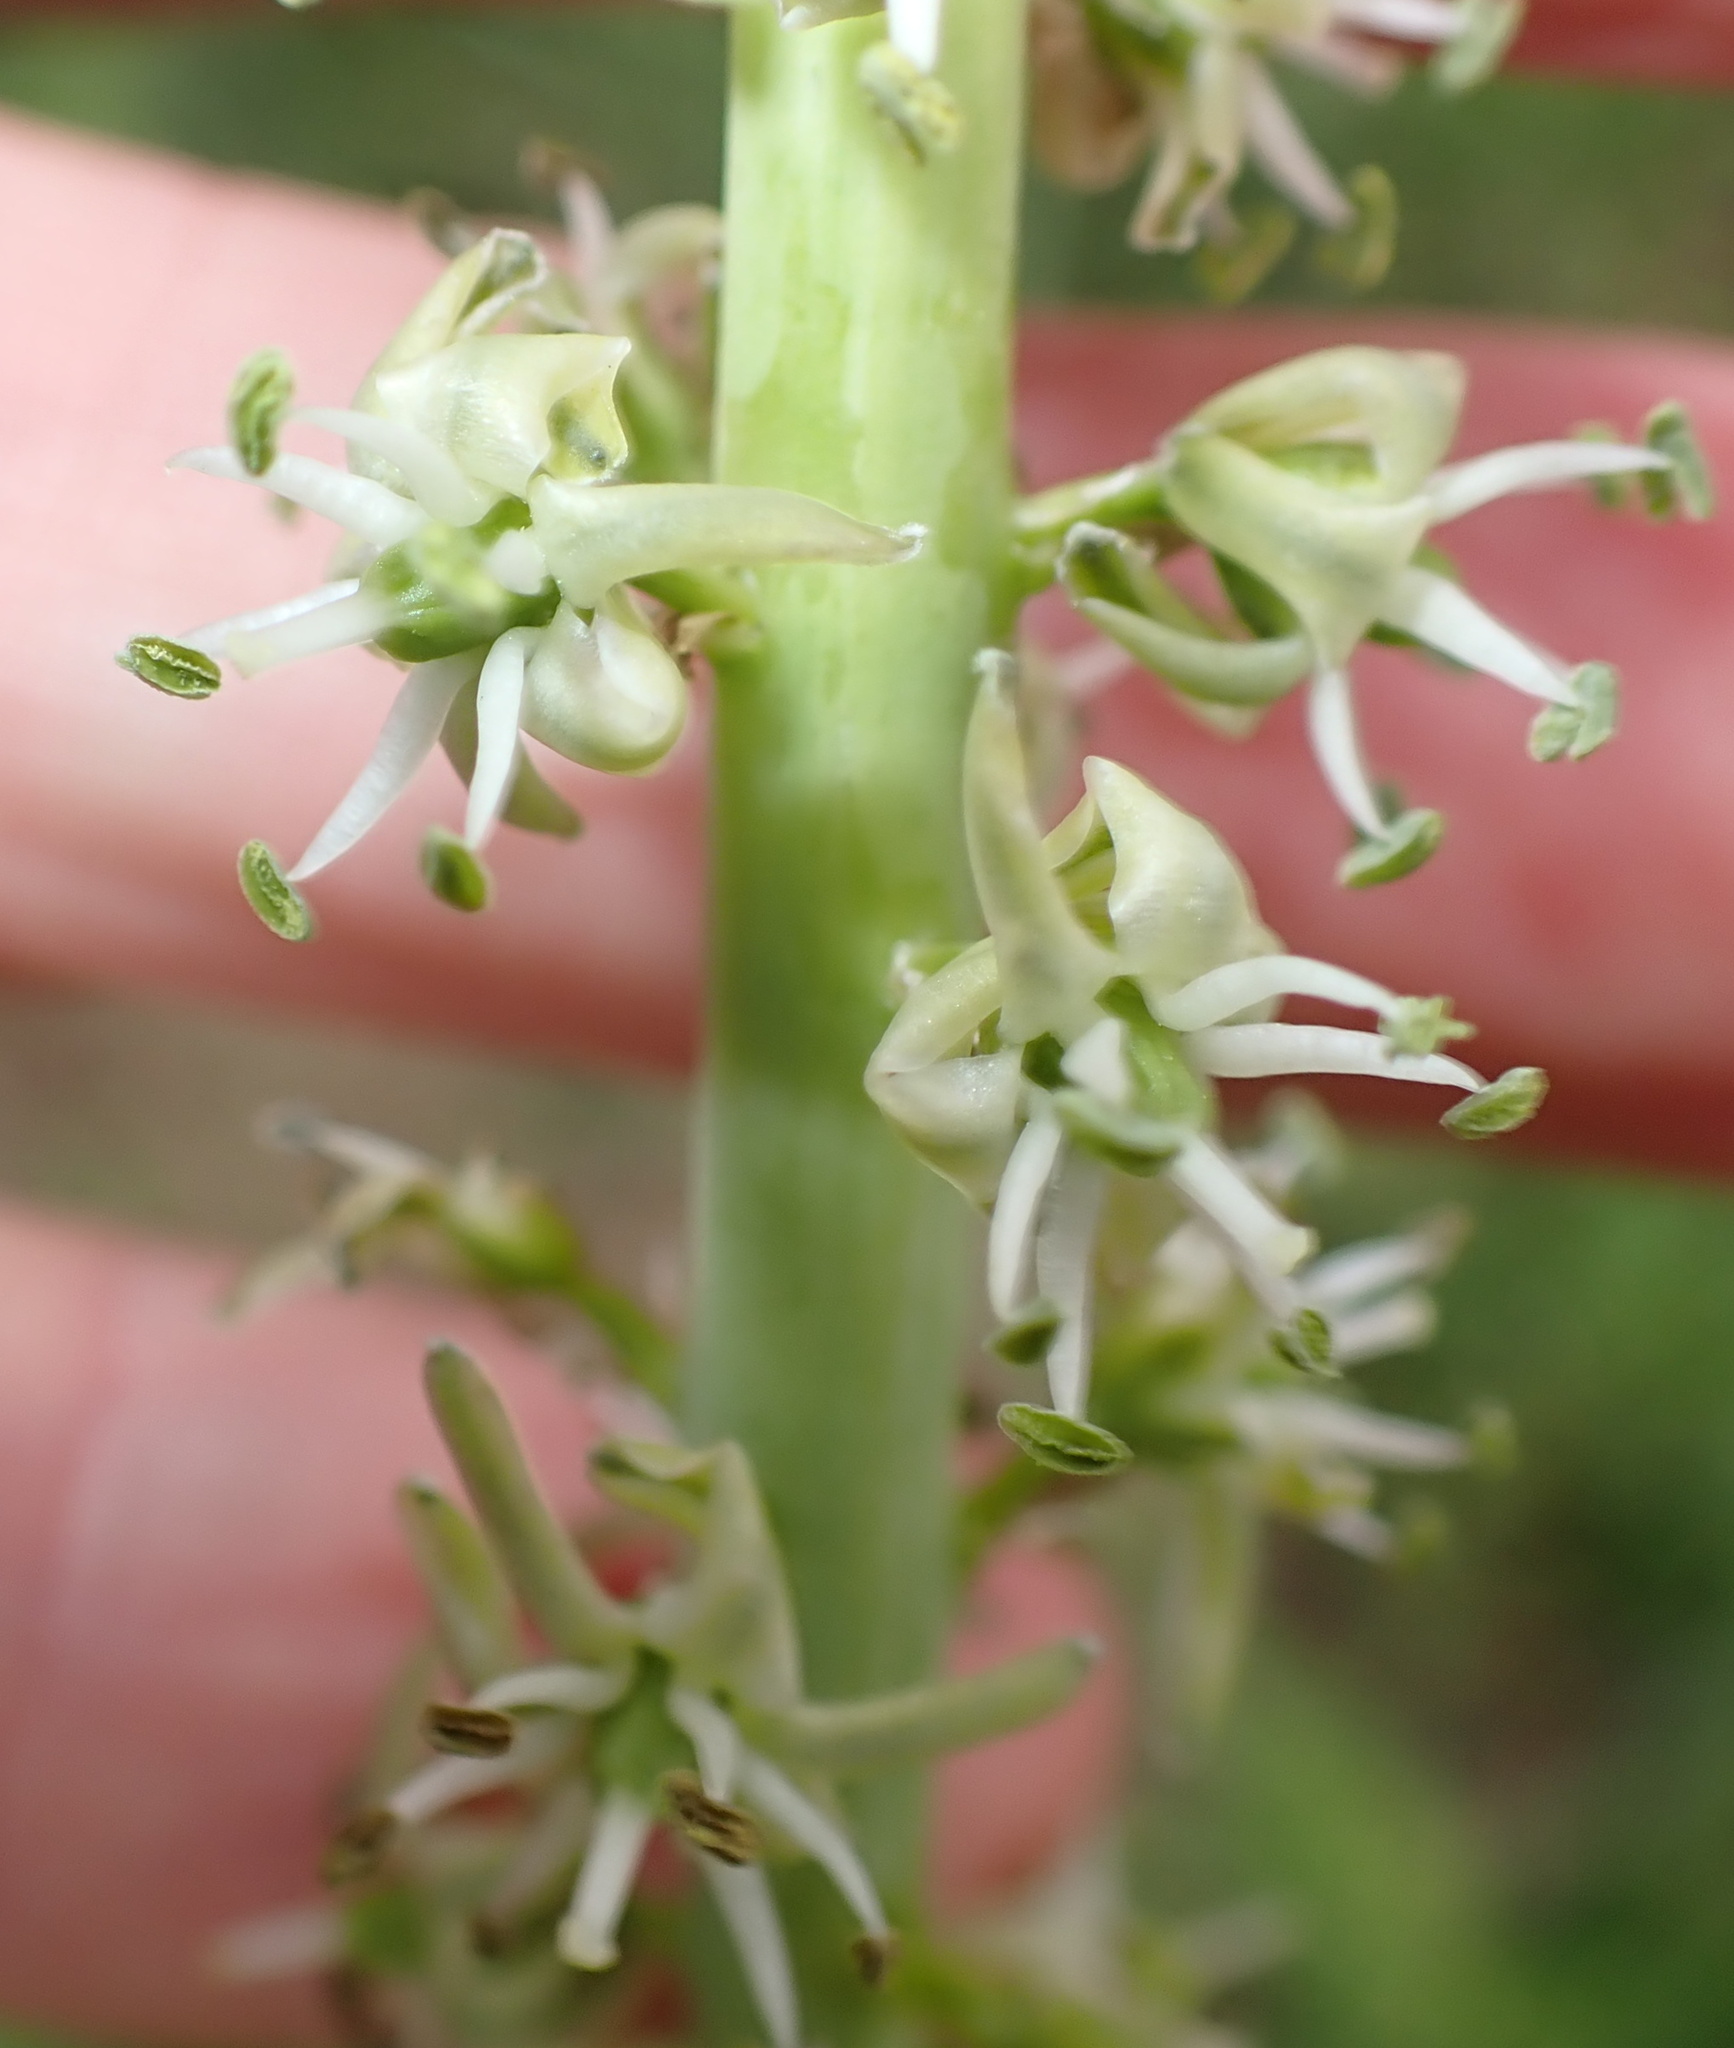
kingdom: Plantae
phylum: Tracheophyta
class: Liliopsida
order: Asparagales
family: Asparagaceae
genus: Drimia
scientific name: Drimia altissima
